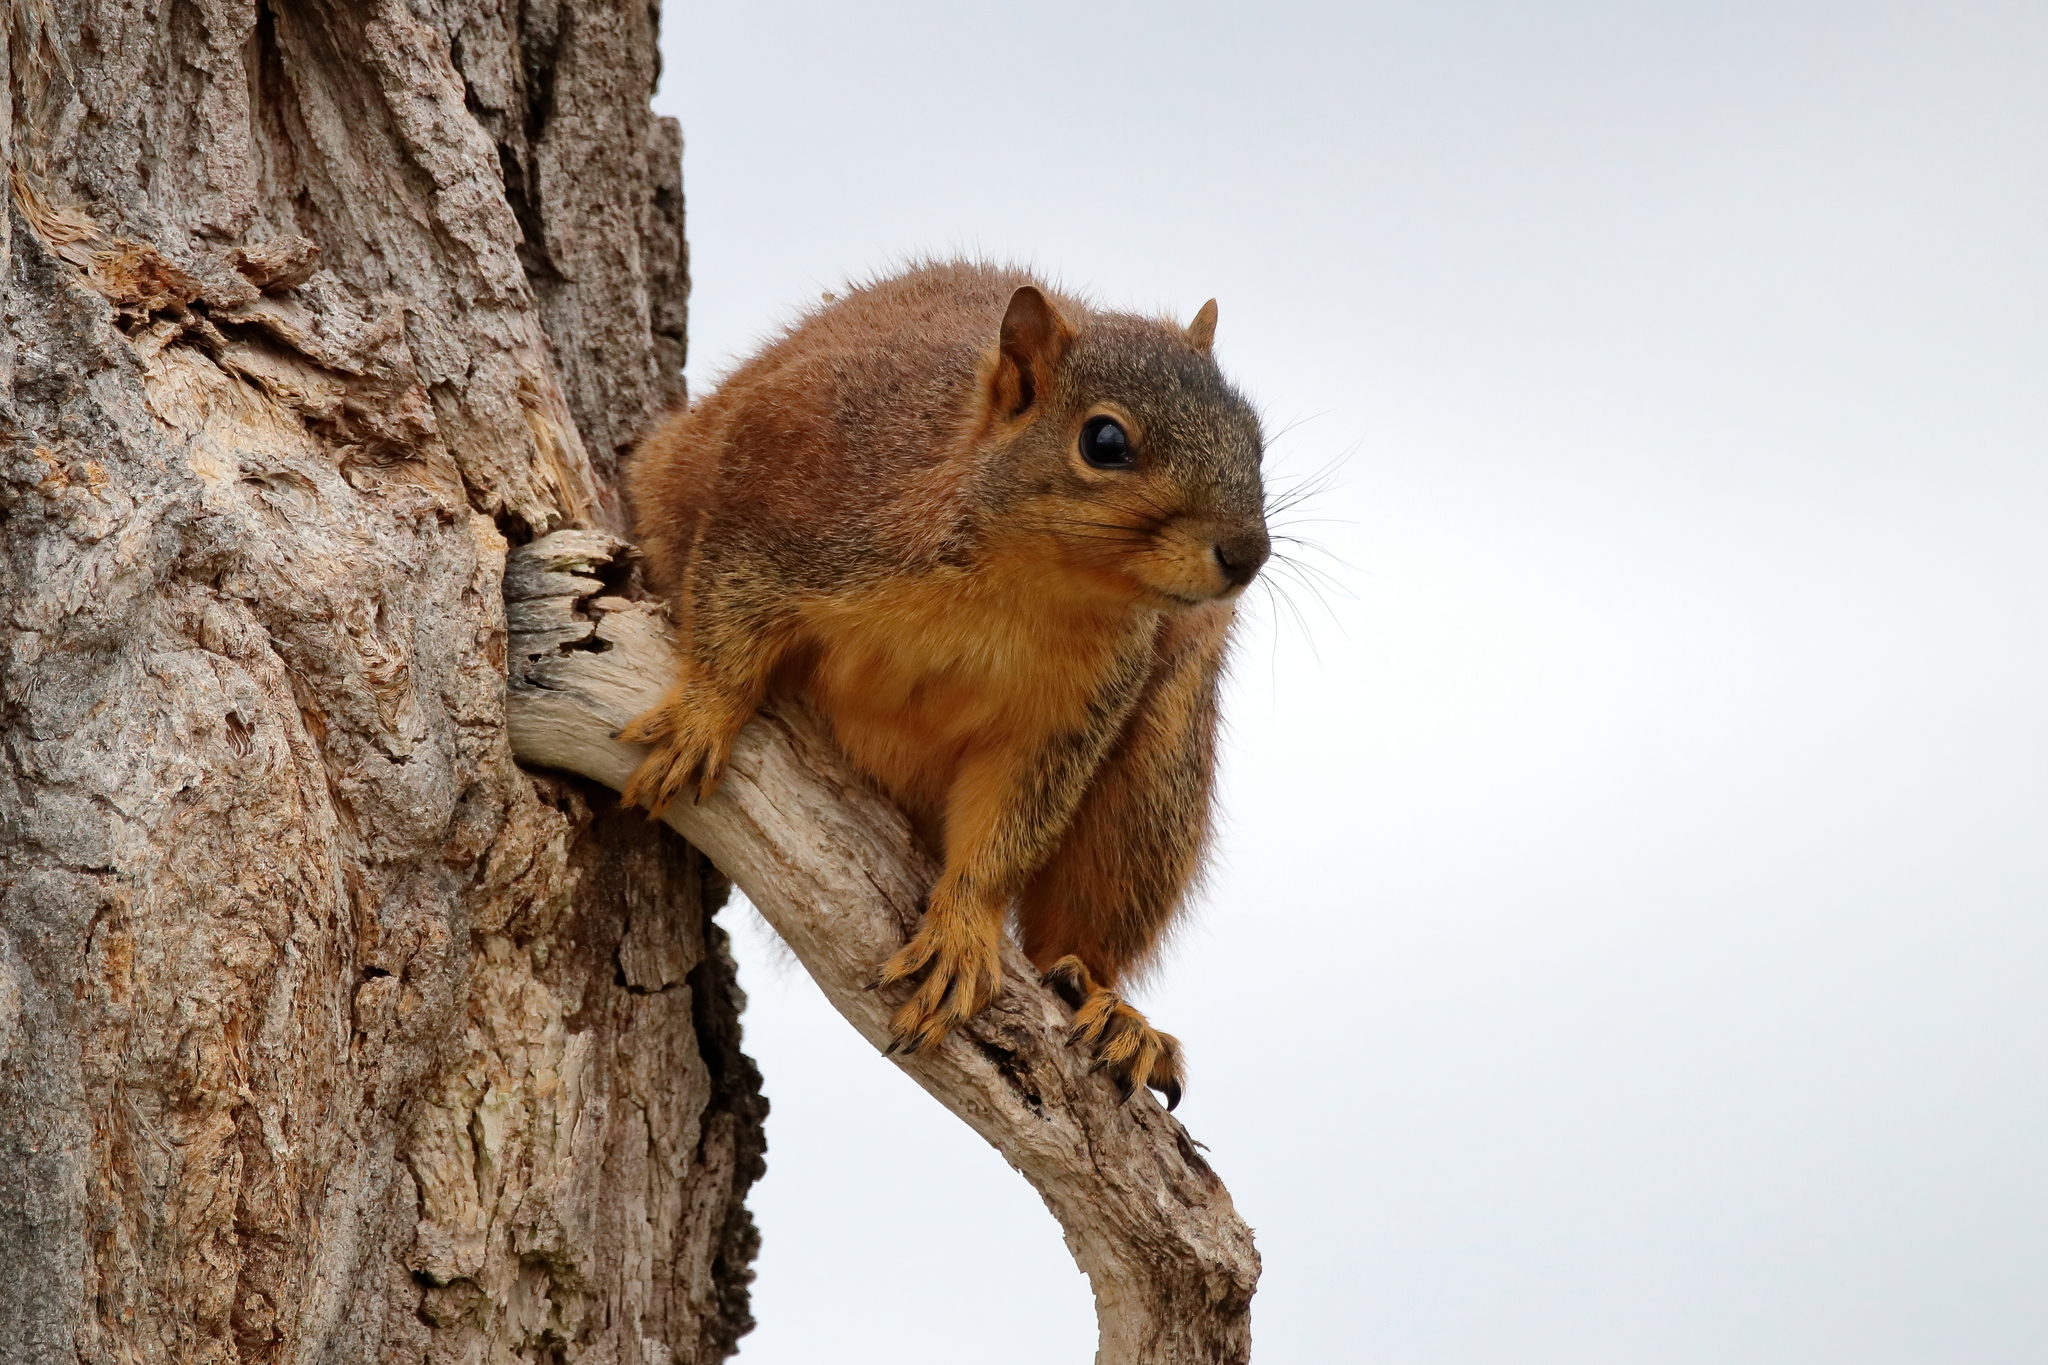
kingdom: Animalia
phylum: Chordata
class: Mammalia
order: Rodentia
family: Sciuridae
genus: Sciurus
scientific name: Sciurus niger
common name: Fox squirrel
